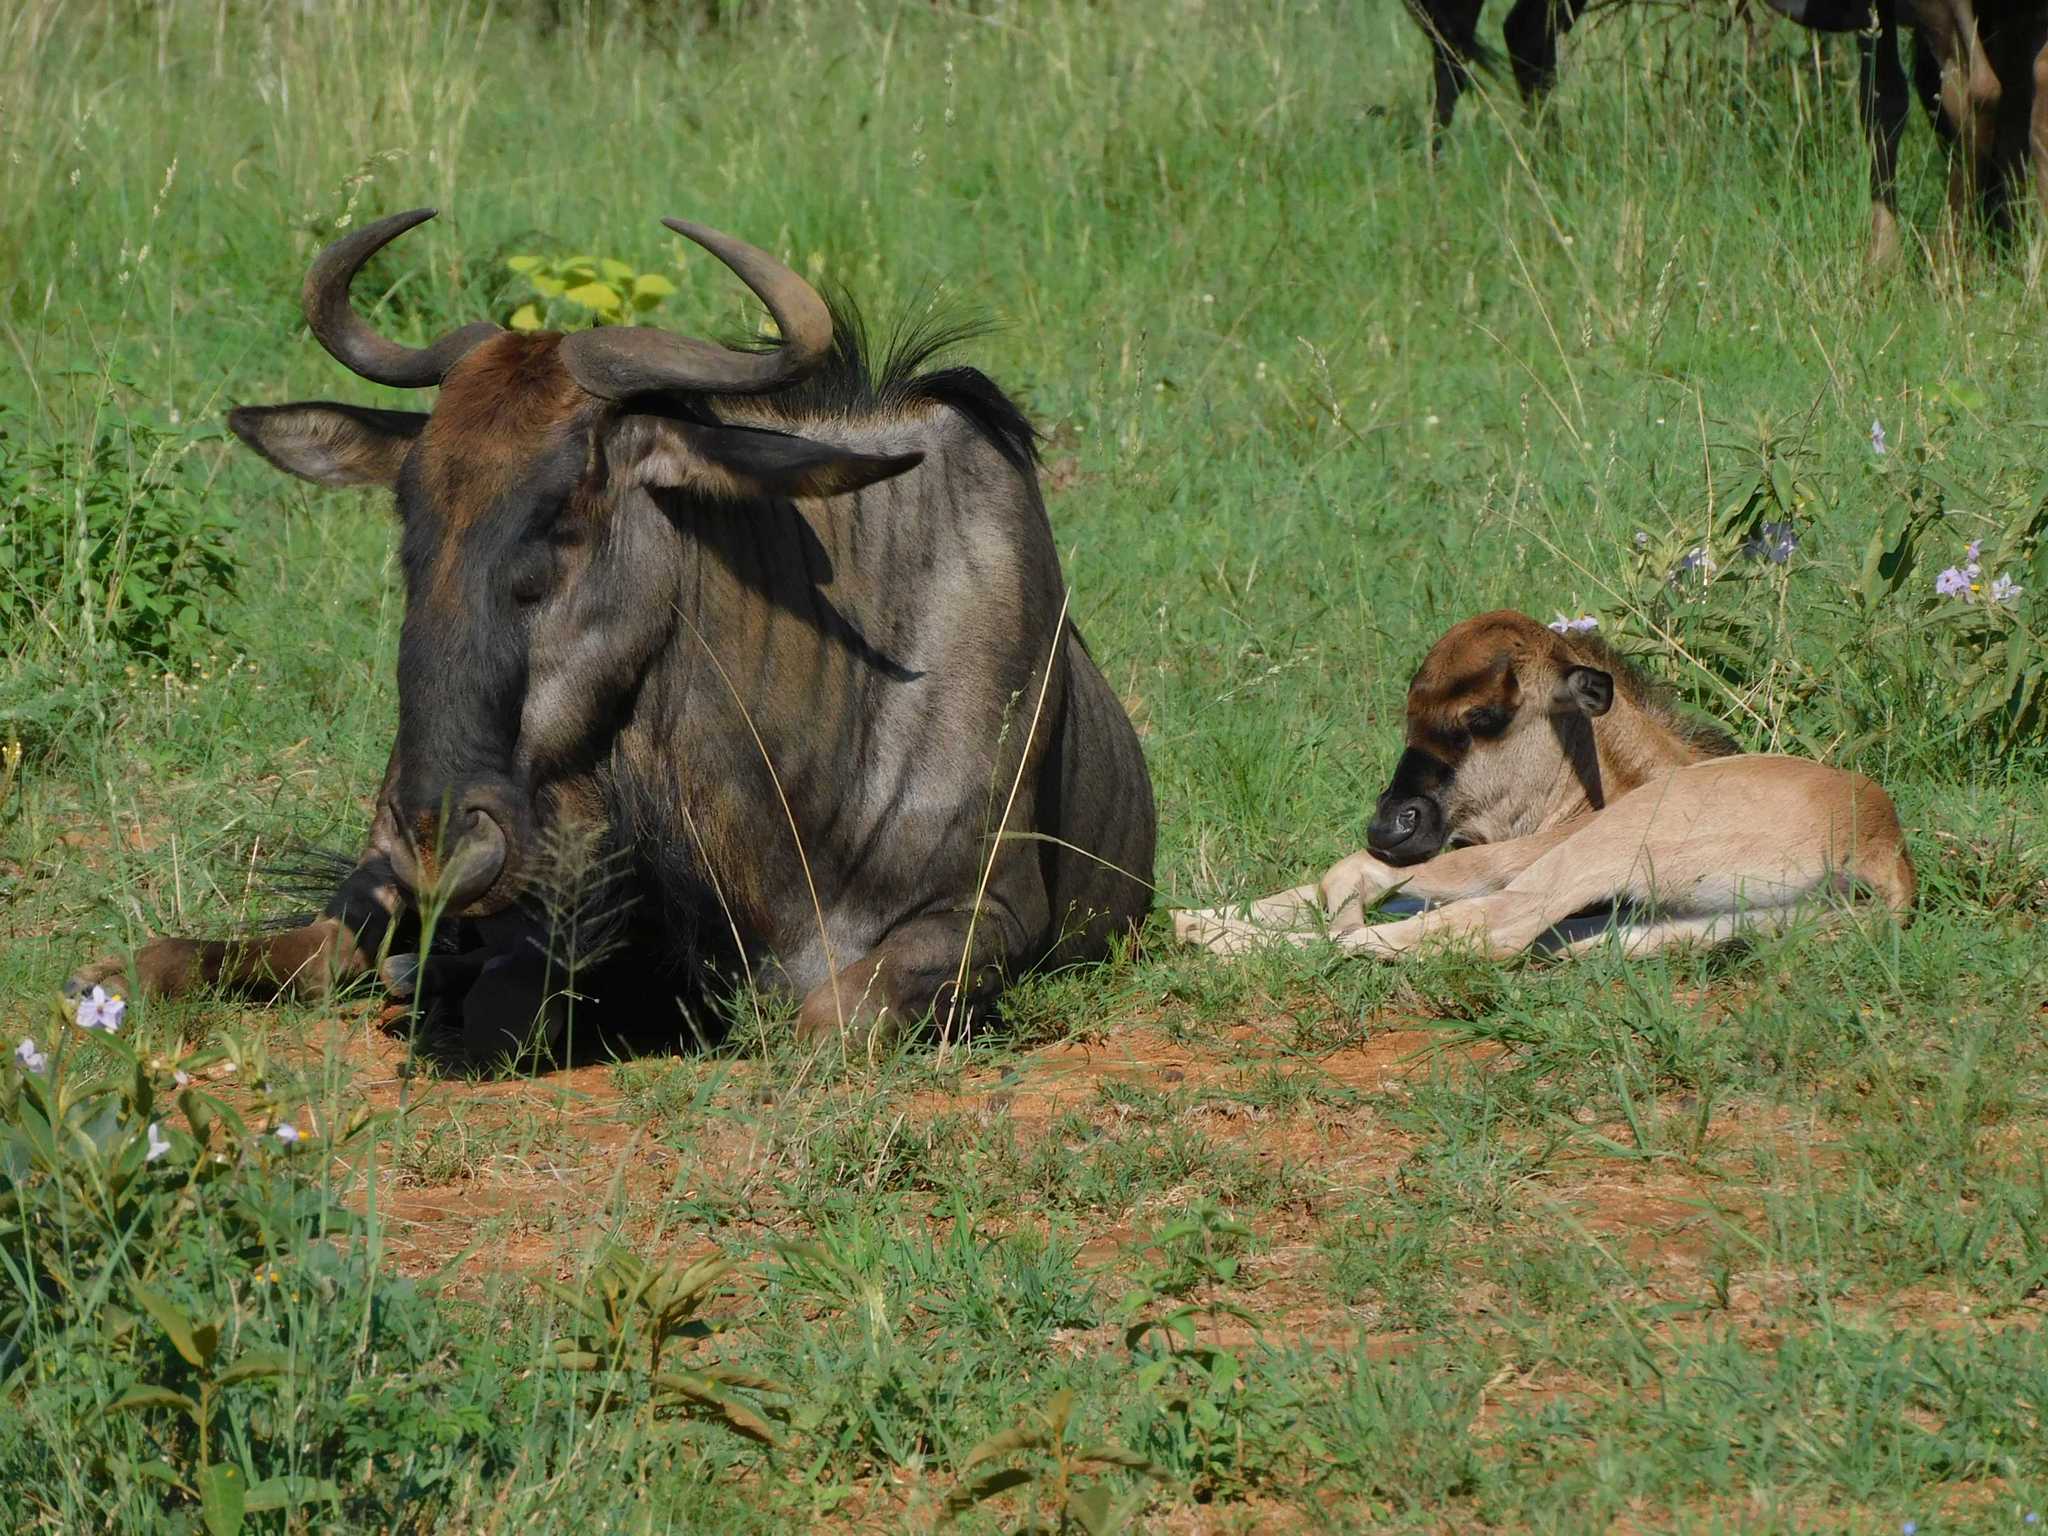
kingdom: Animalia
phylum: Chordata
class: Mammalia
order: Artiodactyla
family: Bovidae
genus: Connochaetes
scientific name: Connochaetes taurinus
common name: Blue wildebeest
